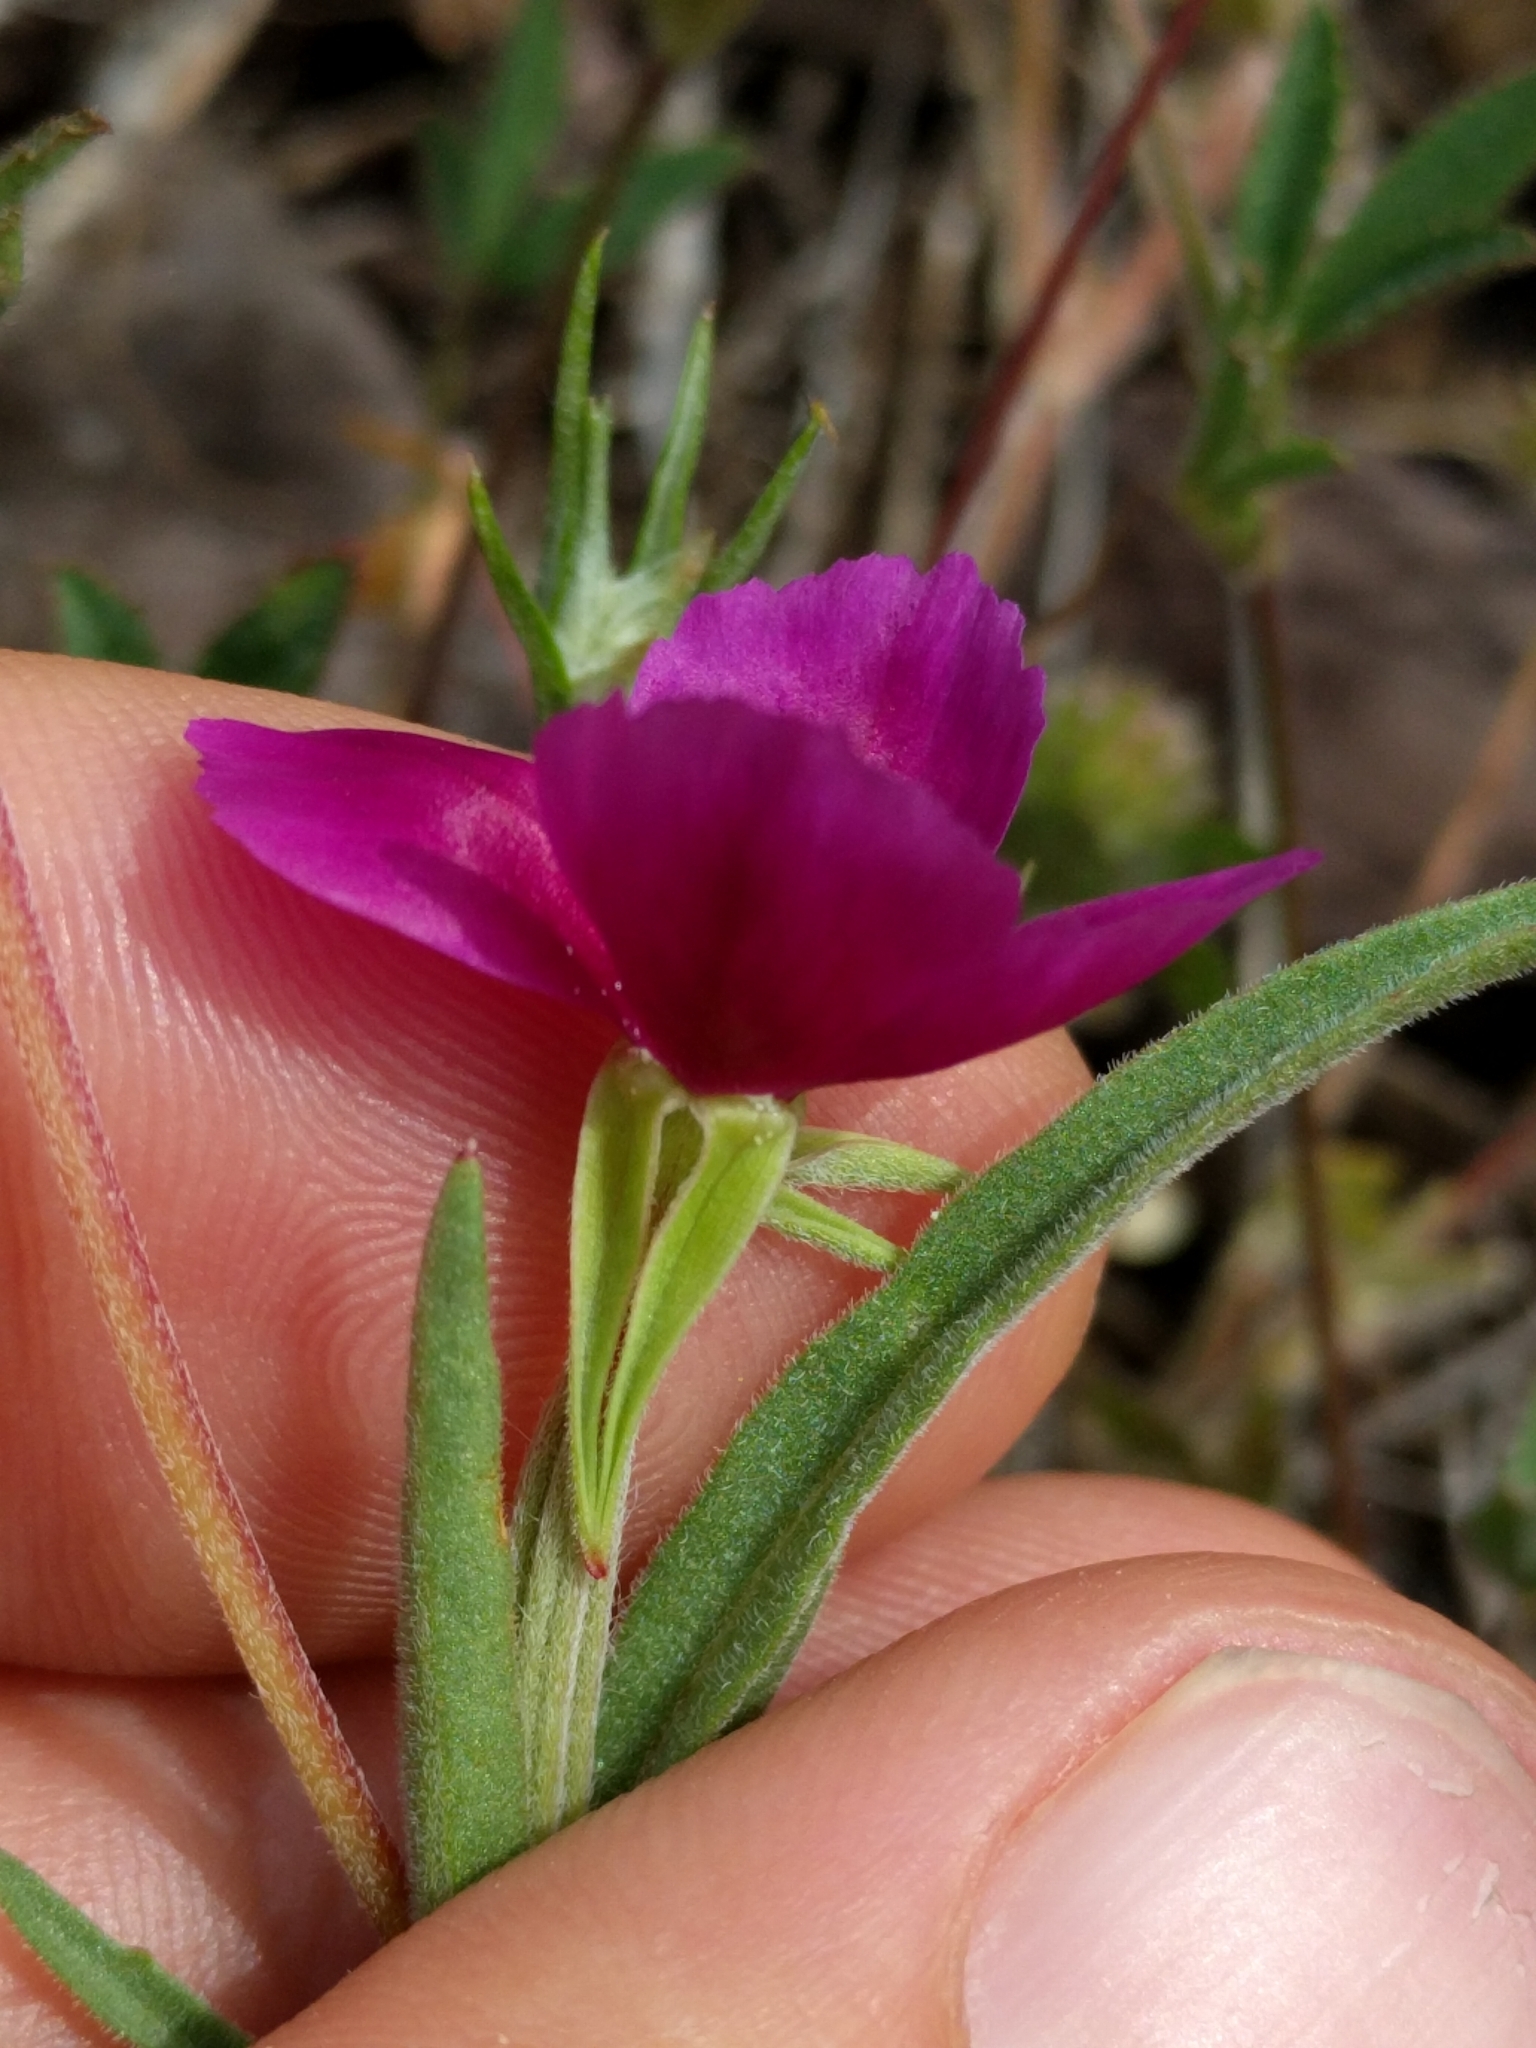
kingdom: Plantae
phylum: Tracheophyta
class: Magnoliopsida
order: Myrtales
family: Onagraceae
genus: Clarkia
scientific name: Clarkia purpurea
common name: Purple clarkia
